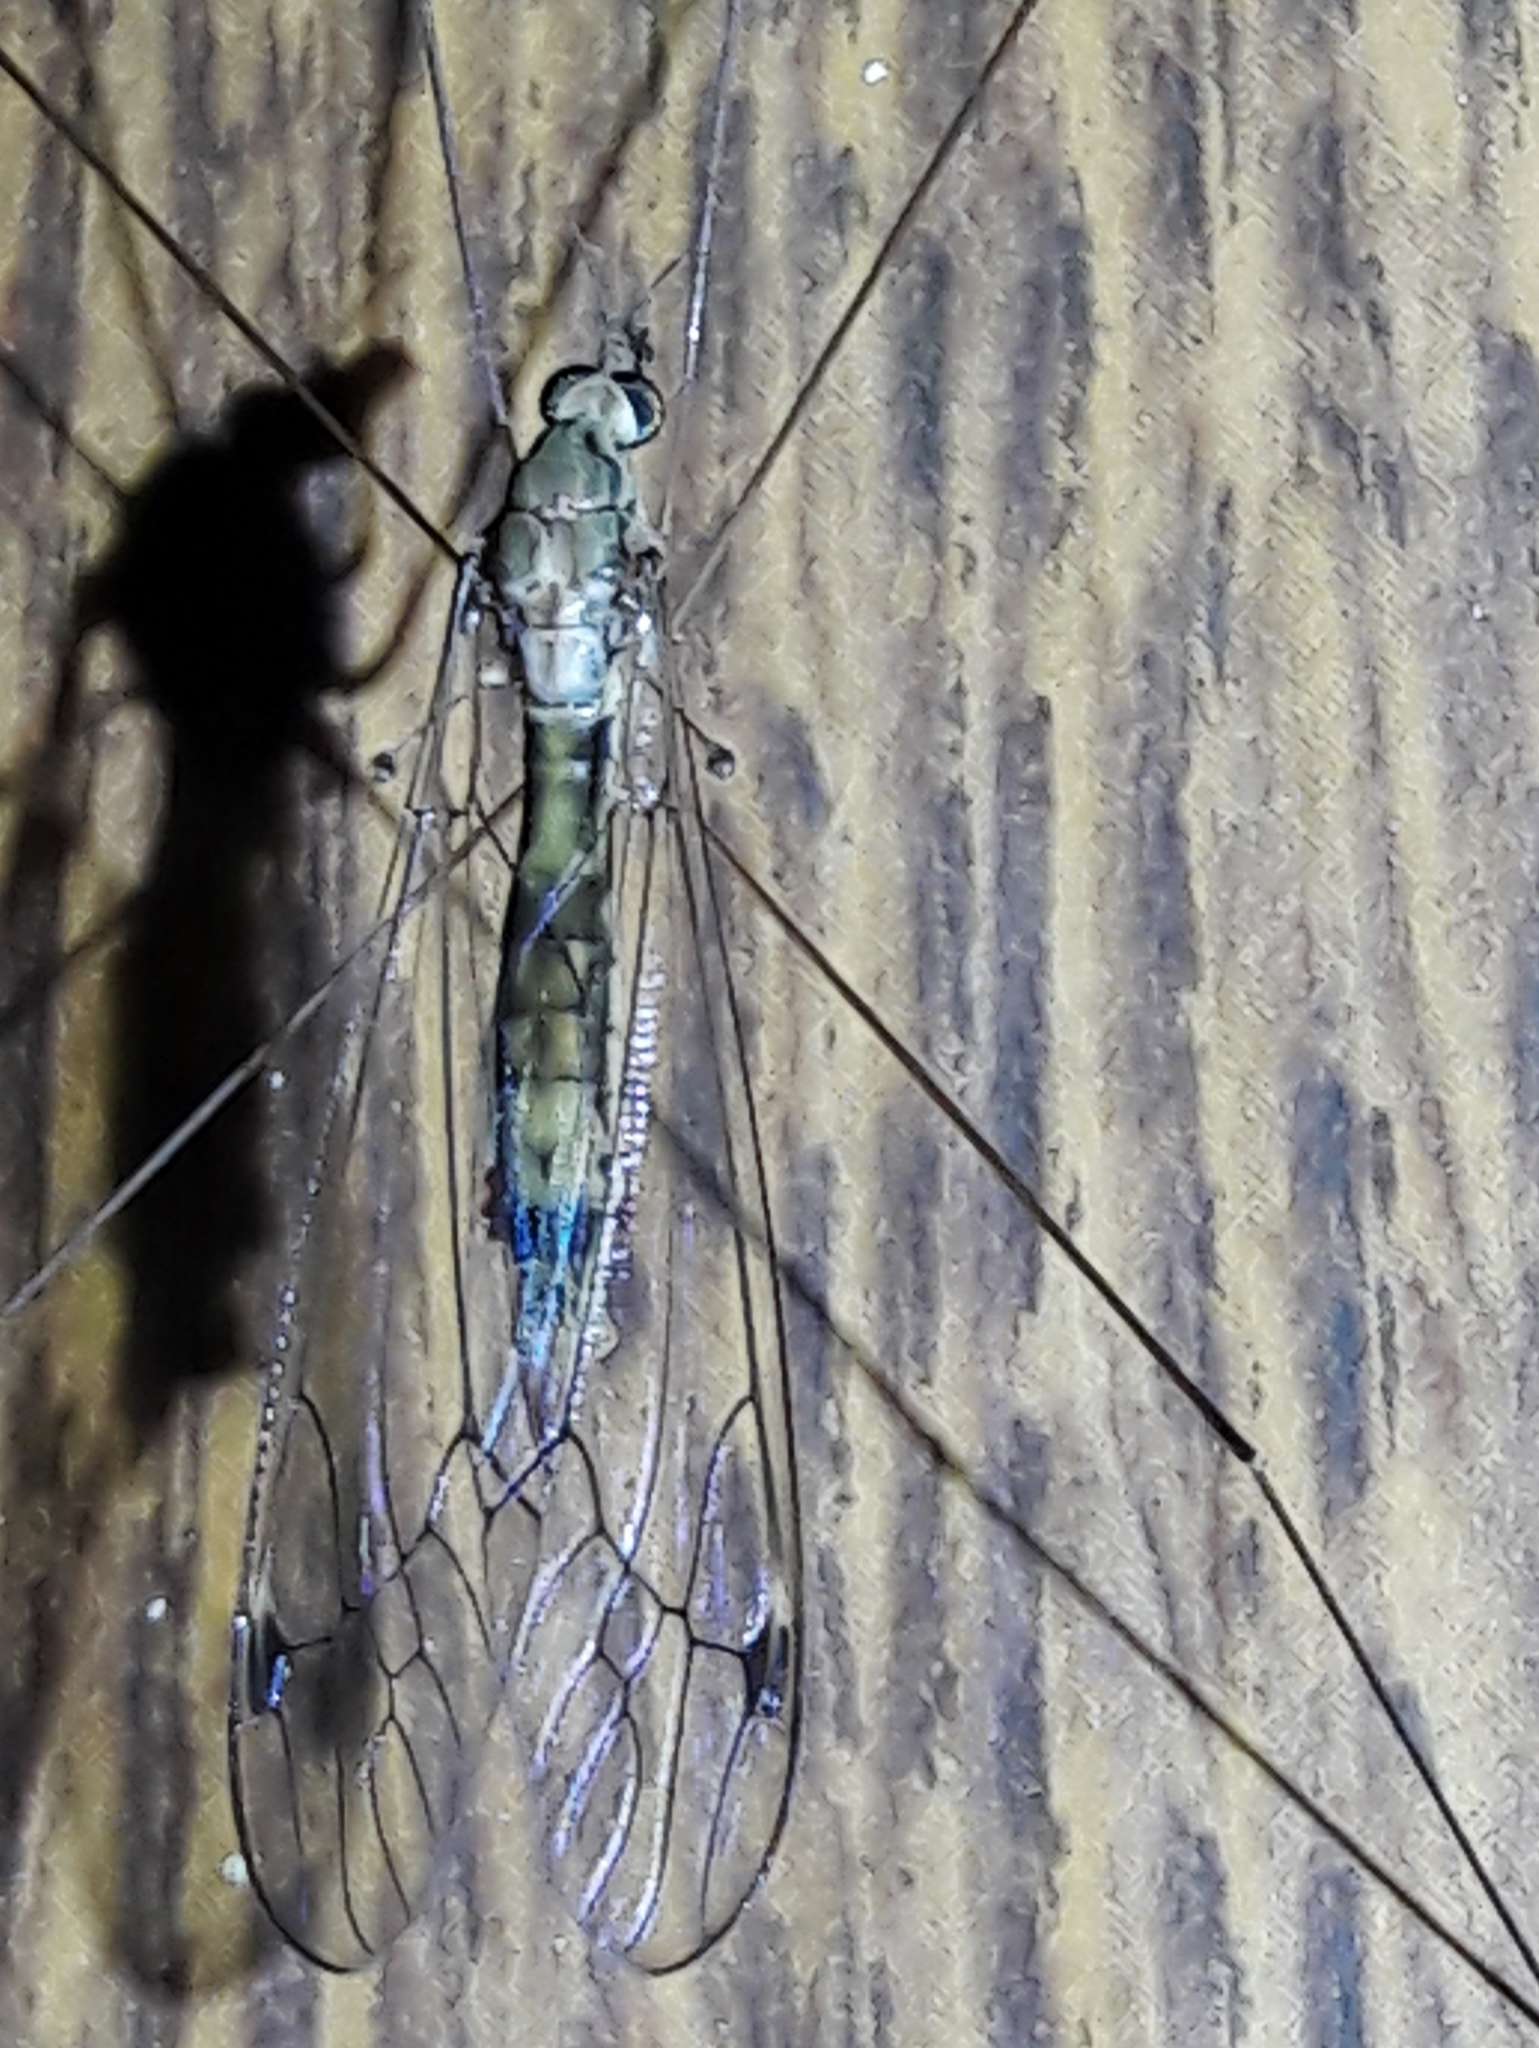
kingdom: Animalia
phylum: Arthropoda
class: Insecta
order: Diptera
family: Tipulidae
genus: Maekistocera
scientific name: Maekistocera longipennis
